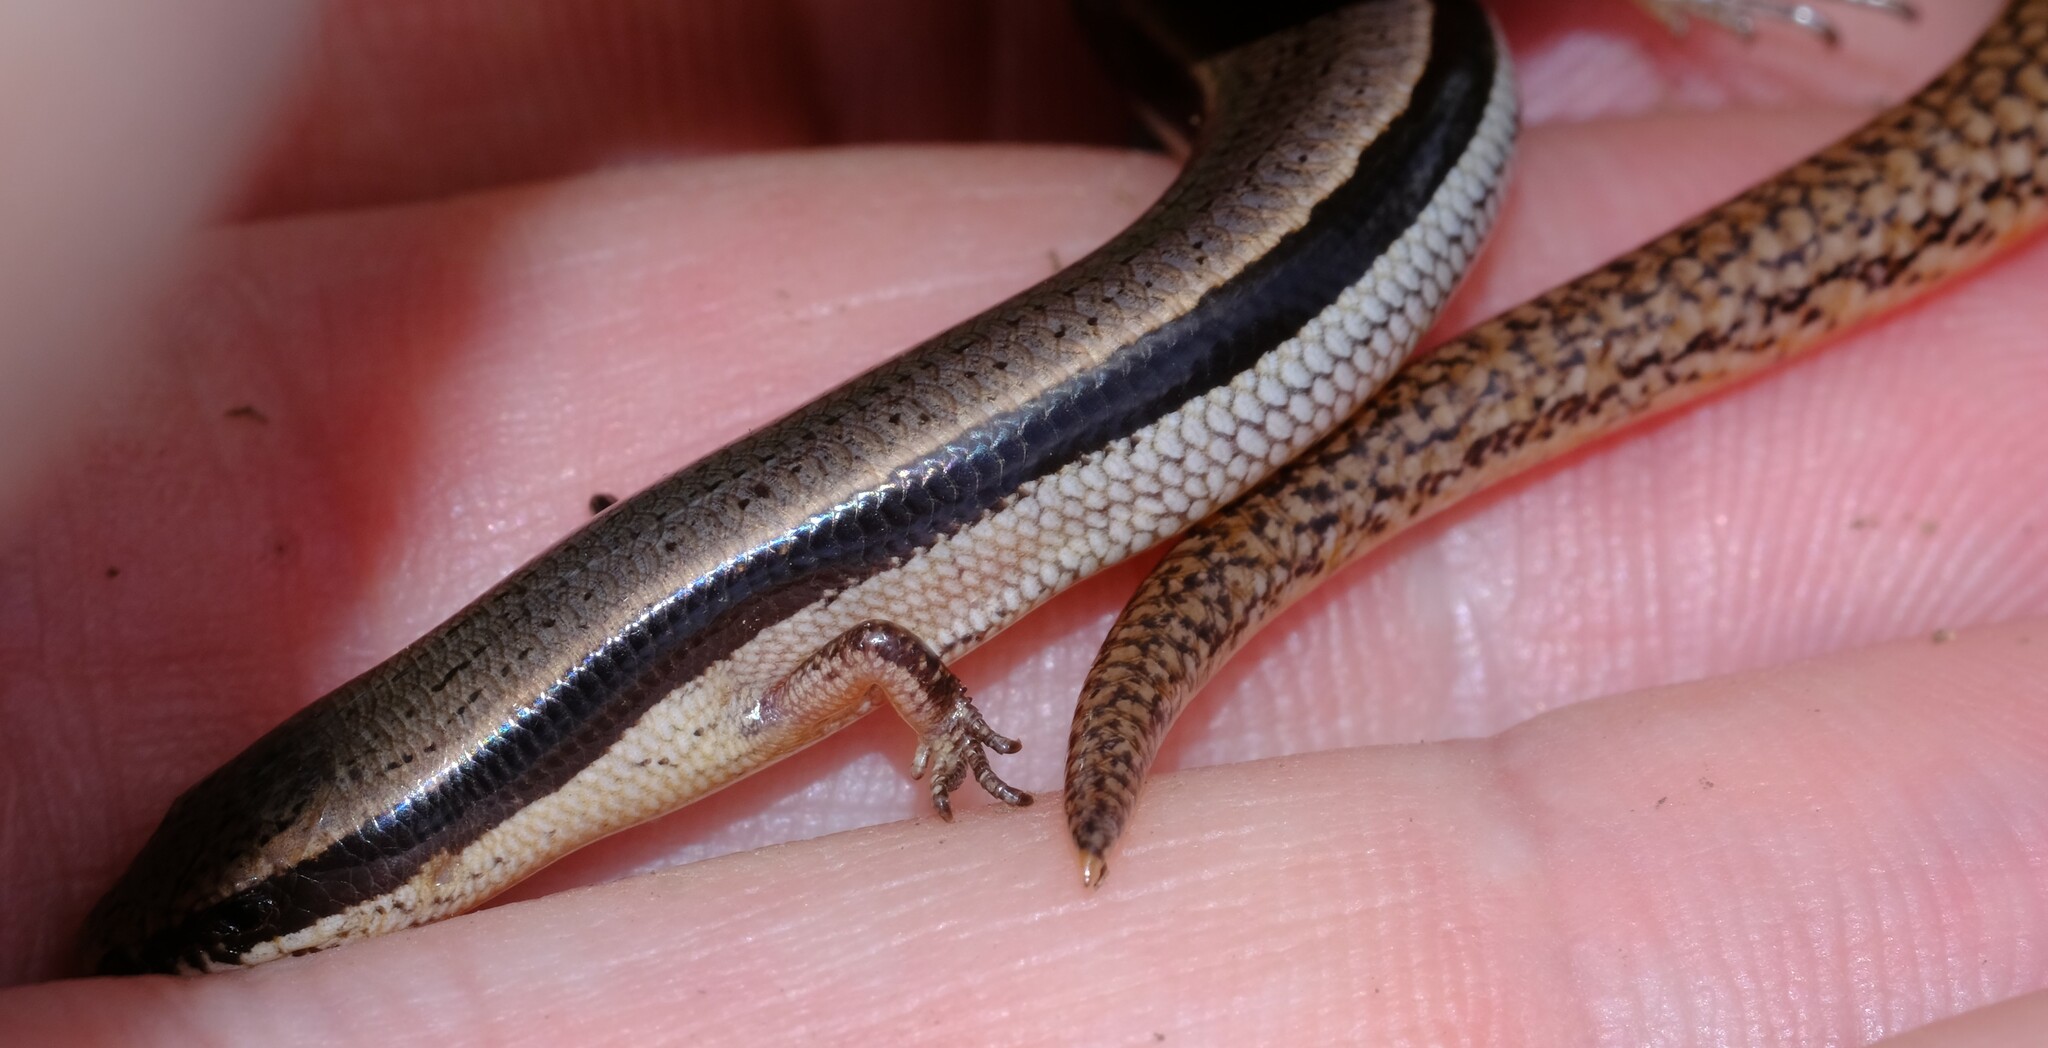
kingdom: Animalia
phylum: Chordata
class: Squamata
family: Scincidae
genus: Lerista
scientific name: Lerista bougainvillii
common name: South-eastern slider
